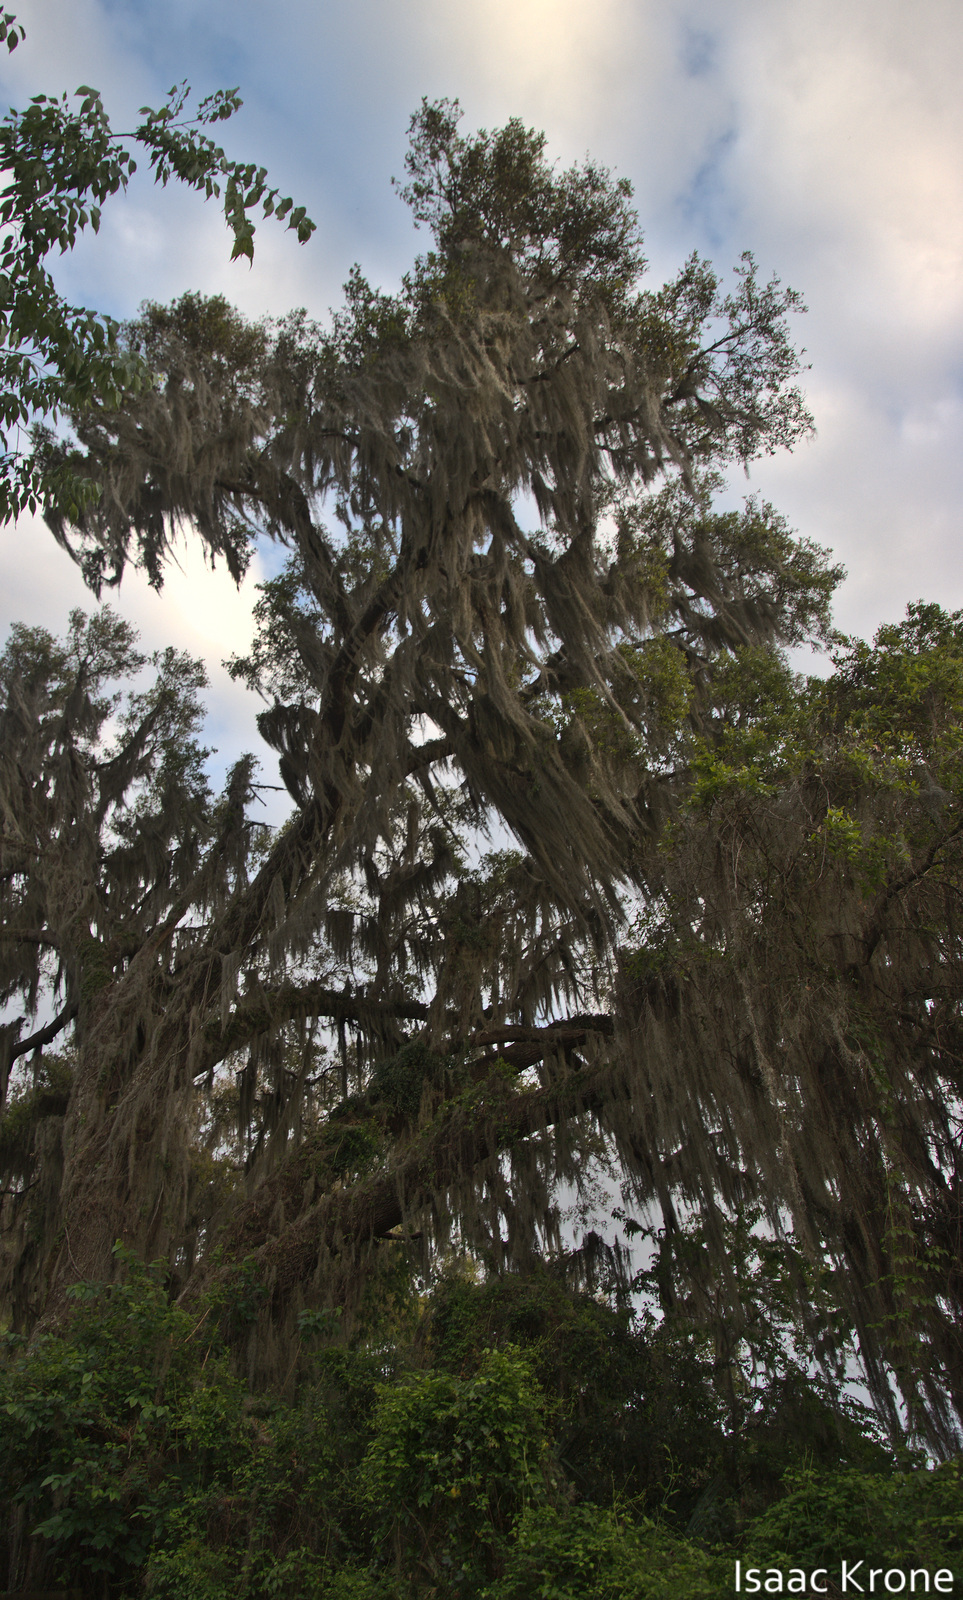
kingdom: Plantae
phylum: Tracheophyta
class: Liliopsida
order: Poales
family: Bromeliaceae
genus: Tillandsia
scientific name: Tillandsia usneoides
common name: Spanish moss
